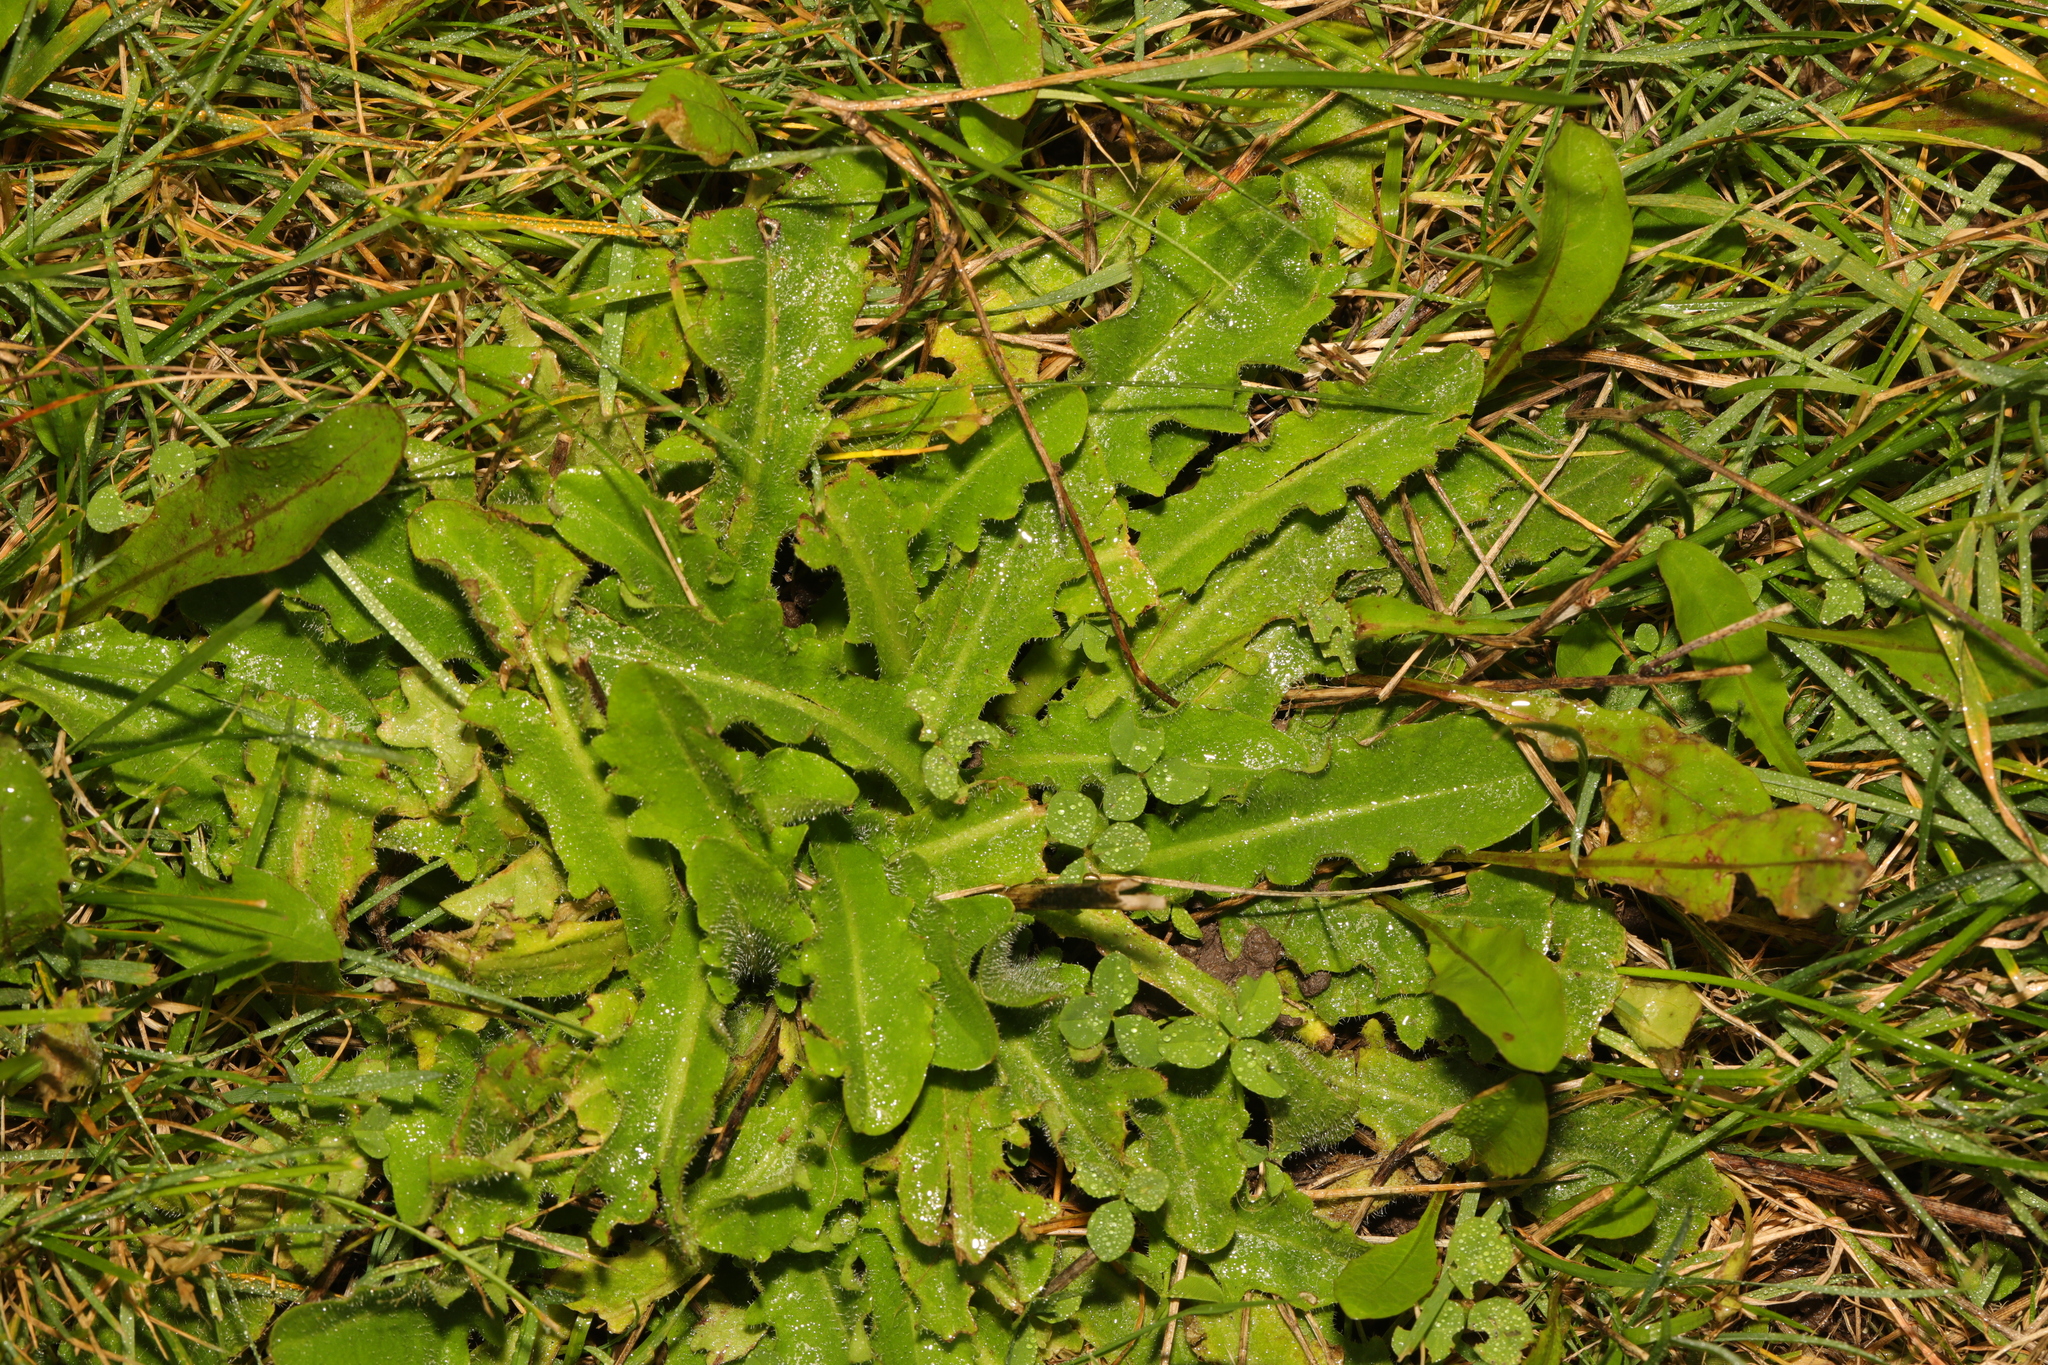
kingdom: Plantae
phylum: Tracheophyta
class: Magnoliopsida
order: Asterales
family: Asteraceae
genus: Hypochaeris
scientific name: Hypochaeris radicata
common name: Flatweed
